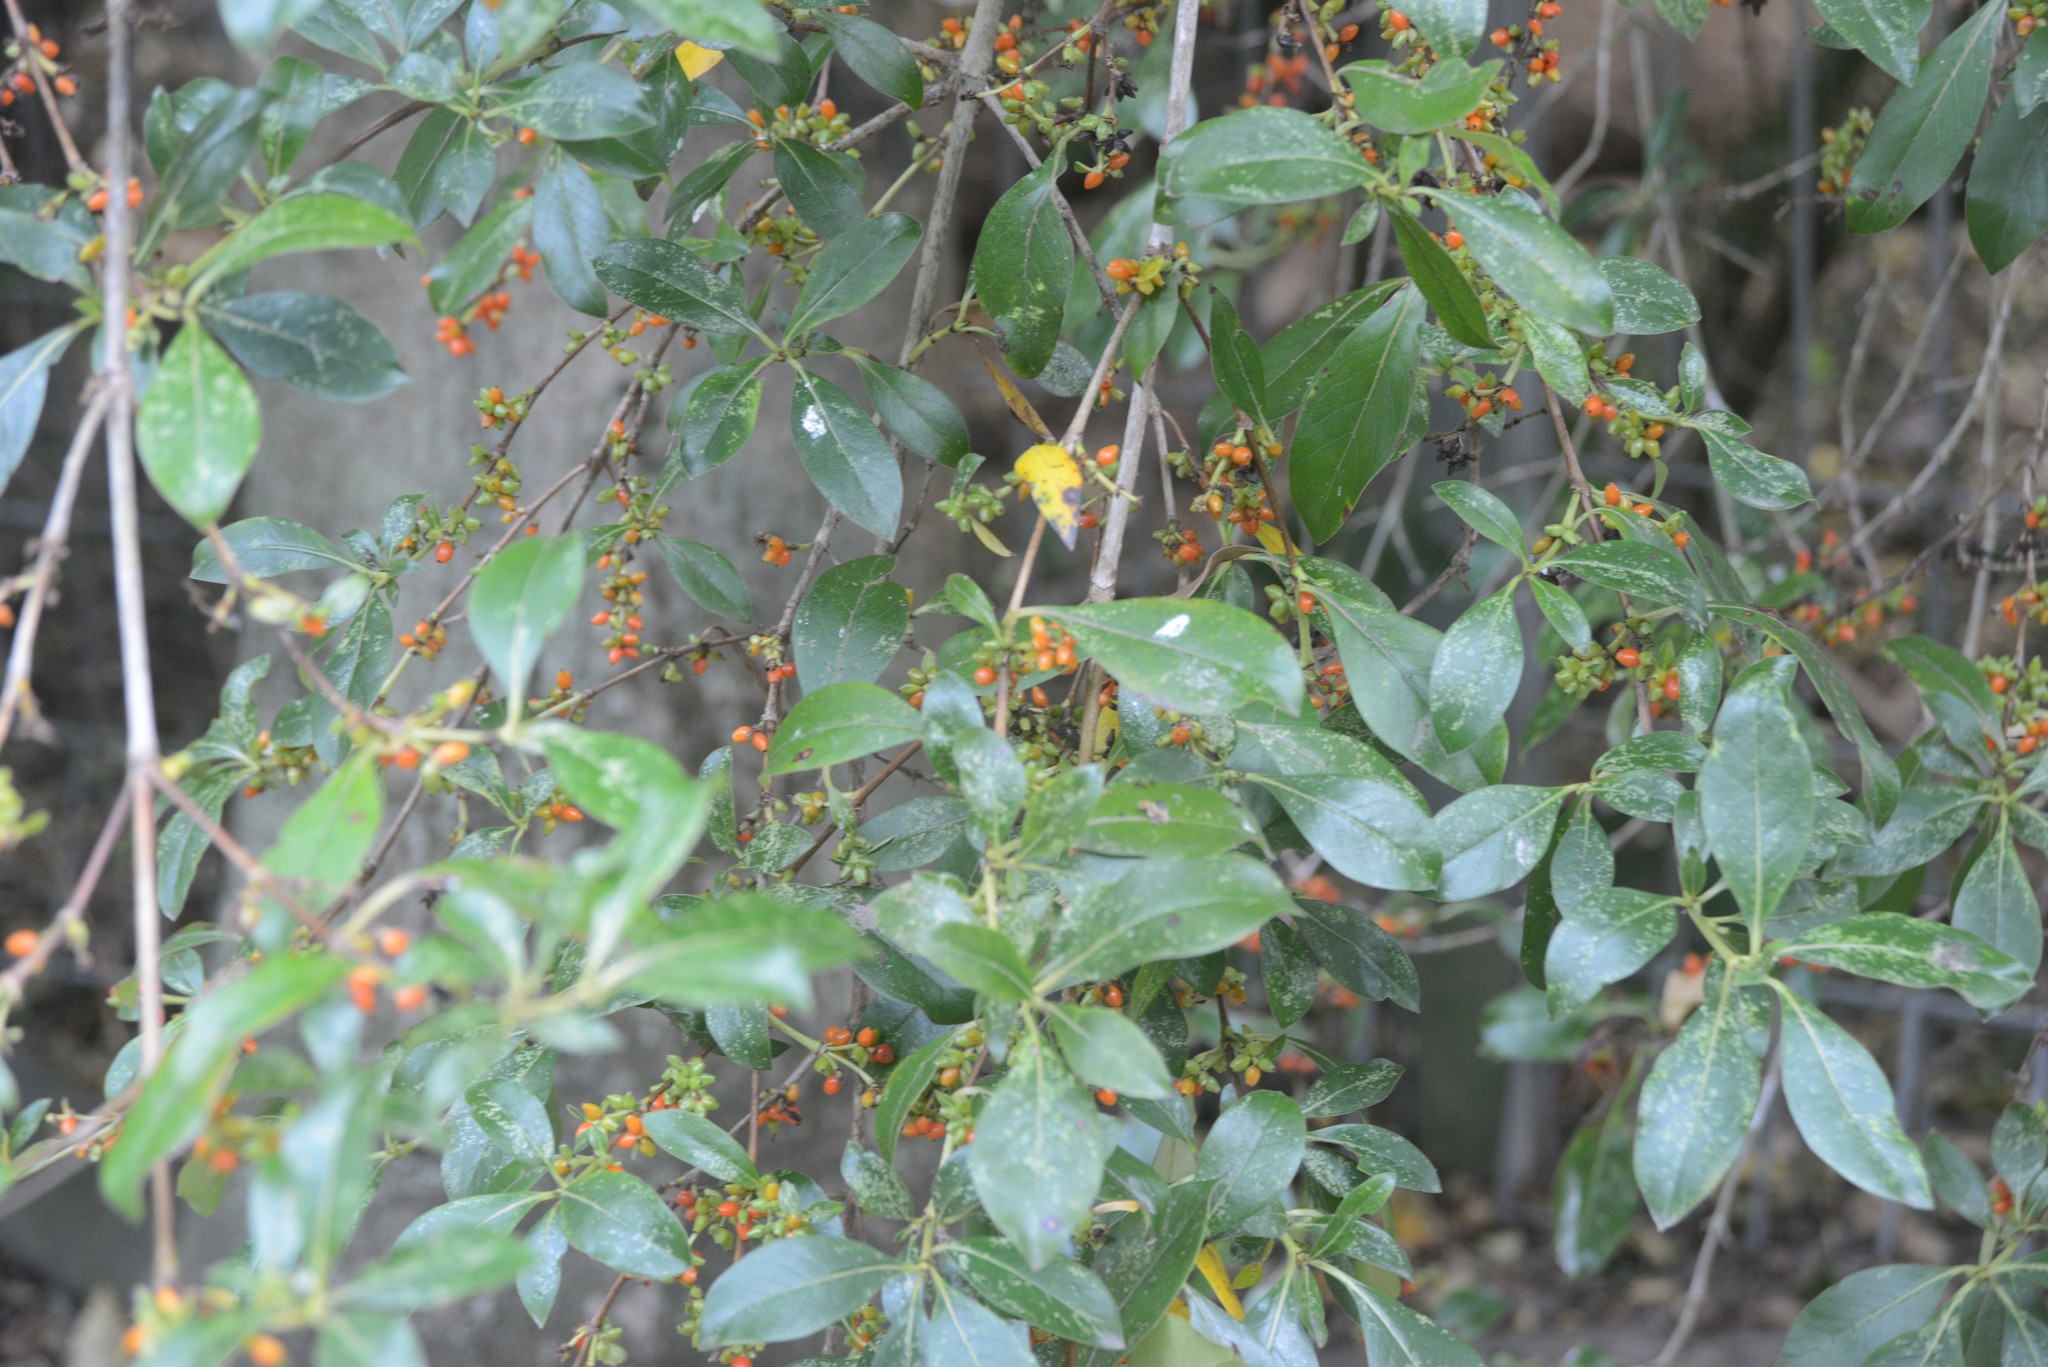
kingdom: Plantae
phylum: Tracheophyta
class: Magnoliopsida
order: Gentianales
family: Rubiaceae
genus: Coprosma
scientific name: Coprosma robusta
